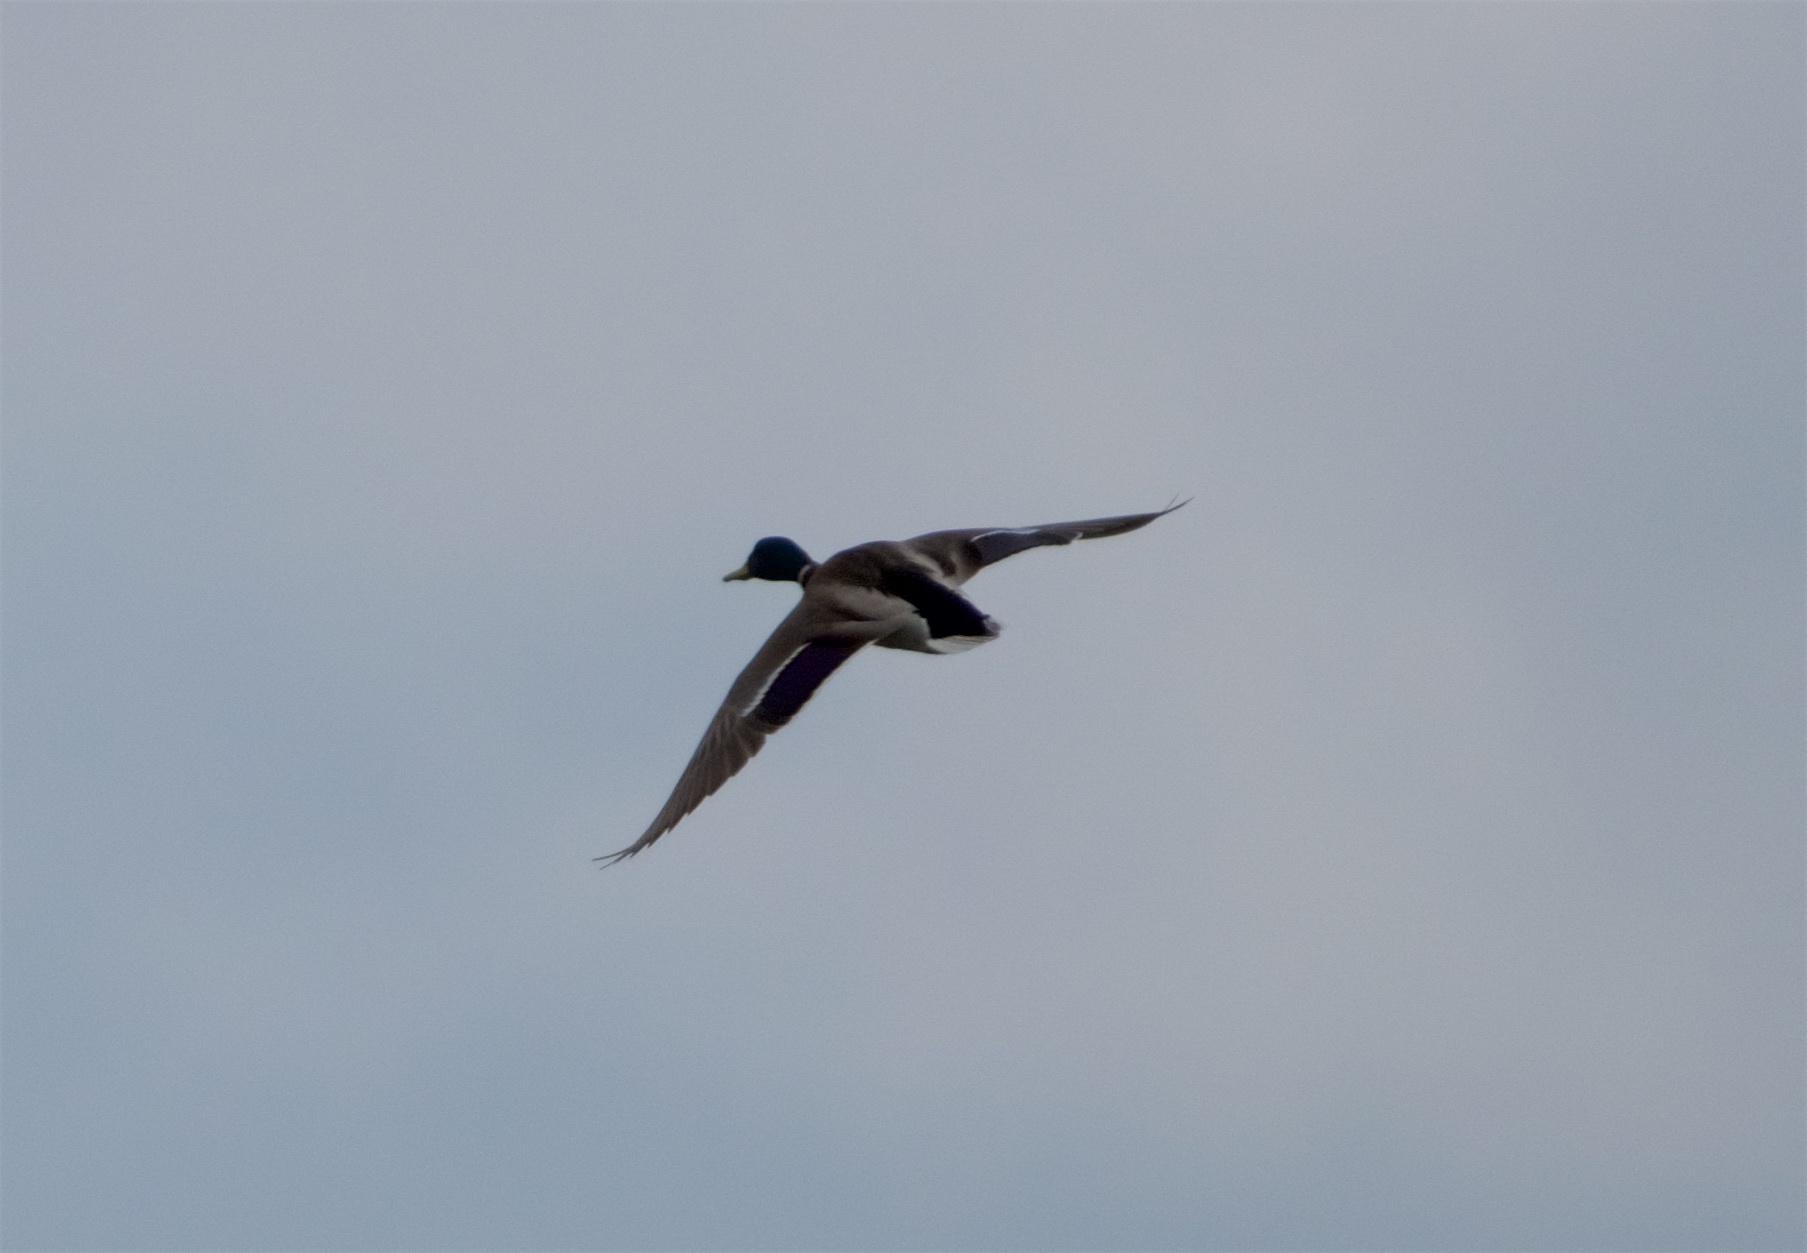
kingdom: Animalia
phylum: Chordata
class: Aves
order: Anseriformes
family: Anatidae
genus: Anas
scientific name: Anas platyrhynchos
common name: Mallard
